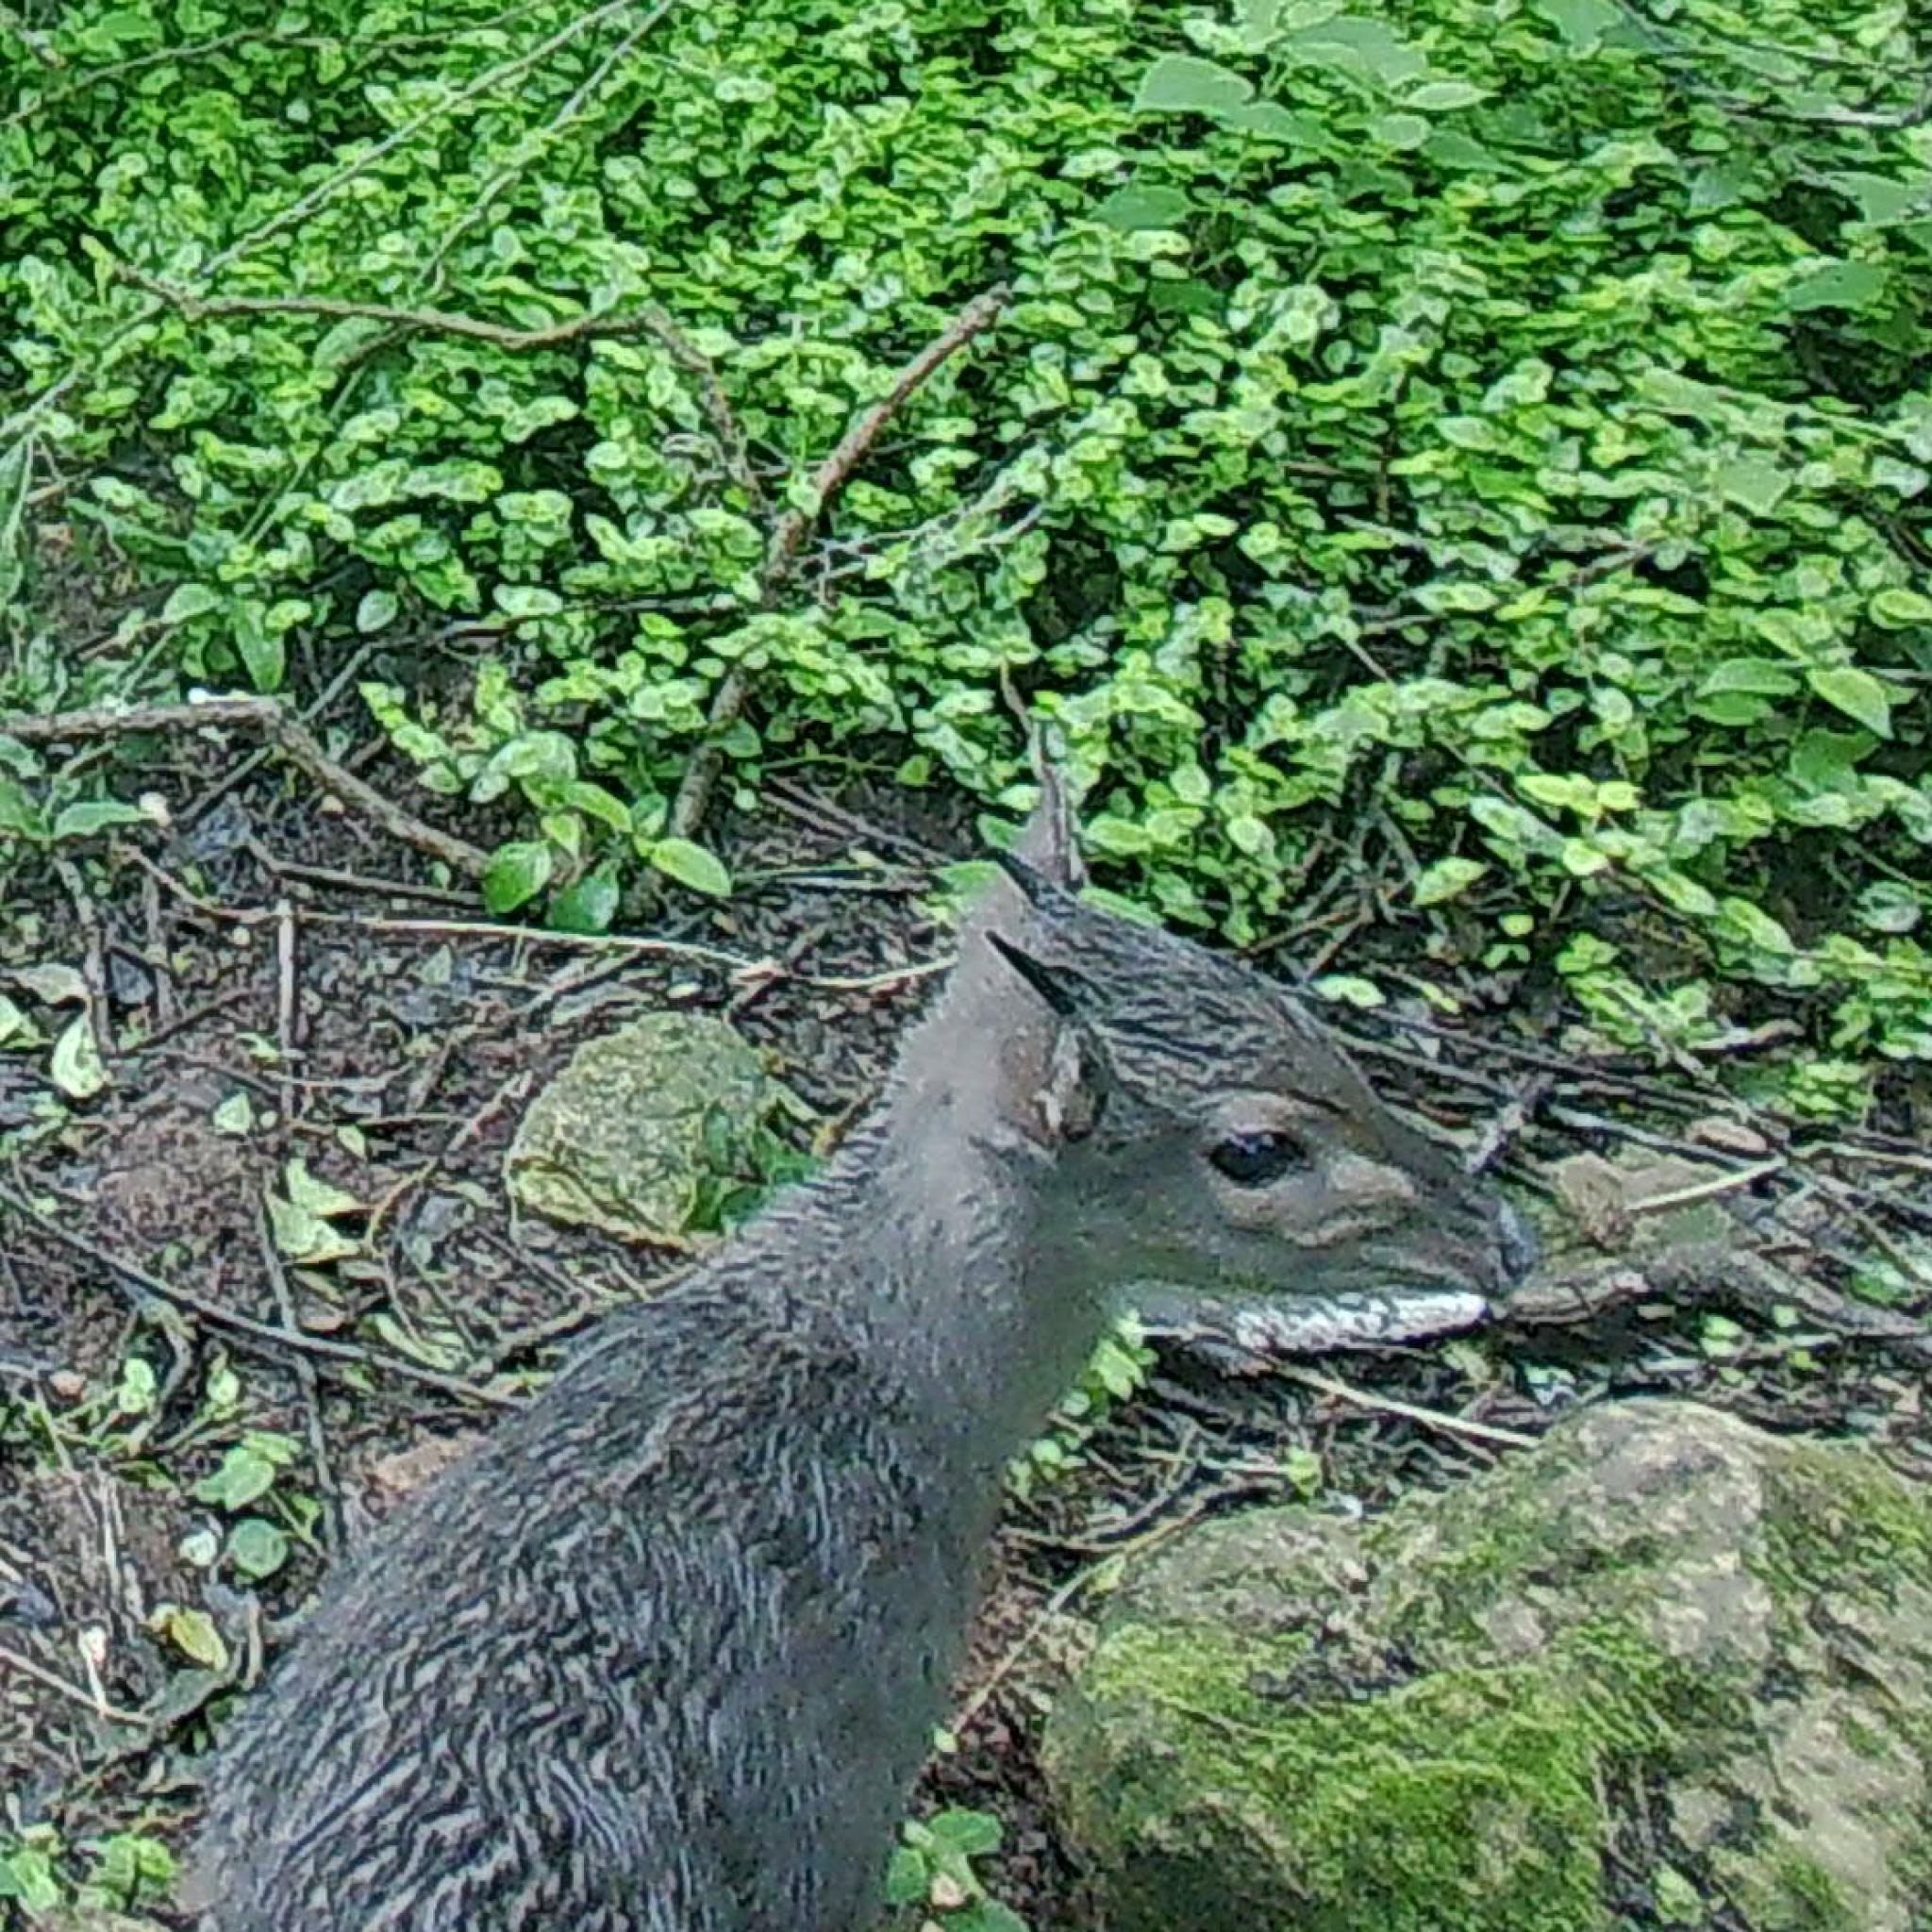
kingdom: Animalia
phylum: Chordata
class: Mammalia
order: Artiodactyla
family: Bovidae
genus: Philantomba
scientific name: Philantomba monticola
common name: Blue duiker
